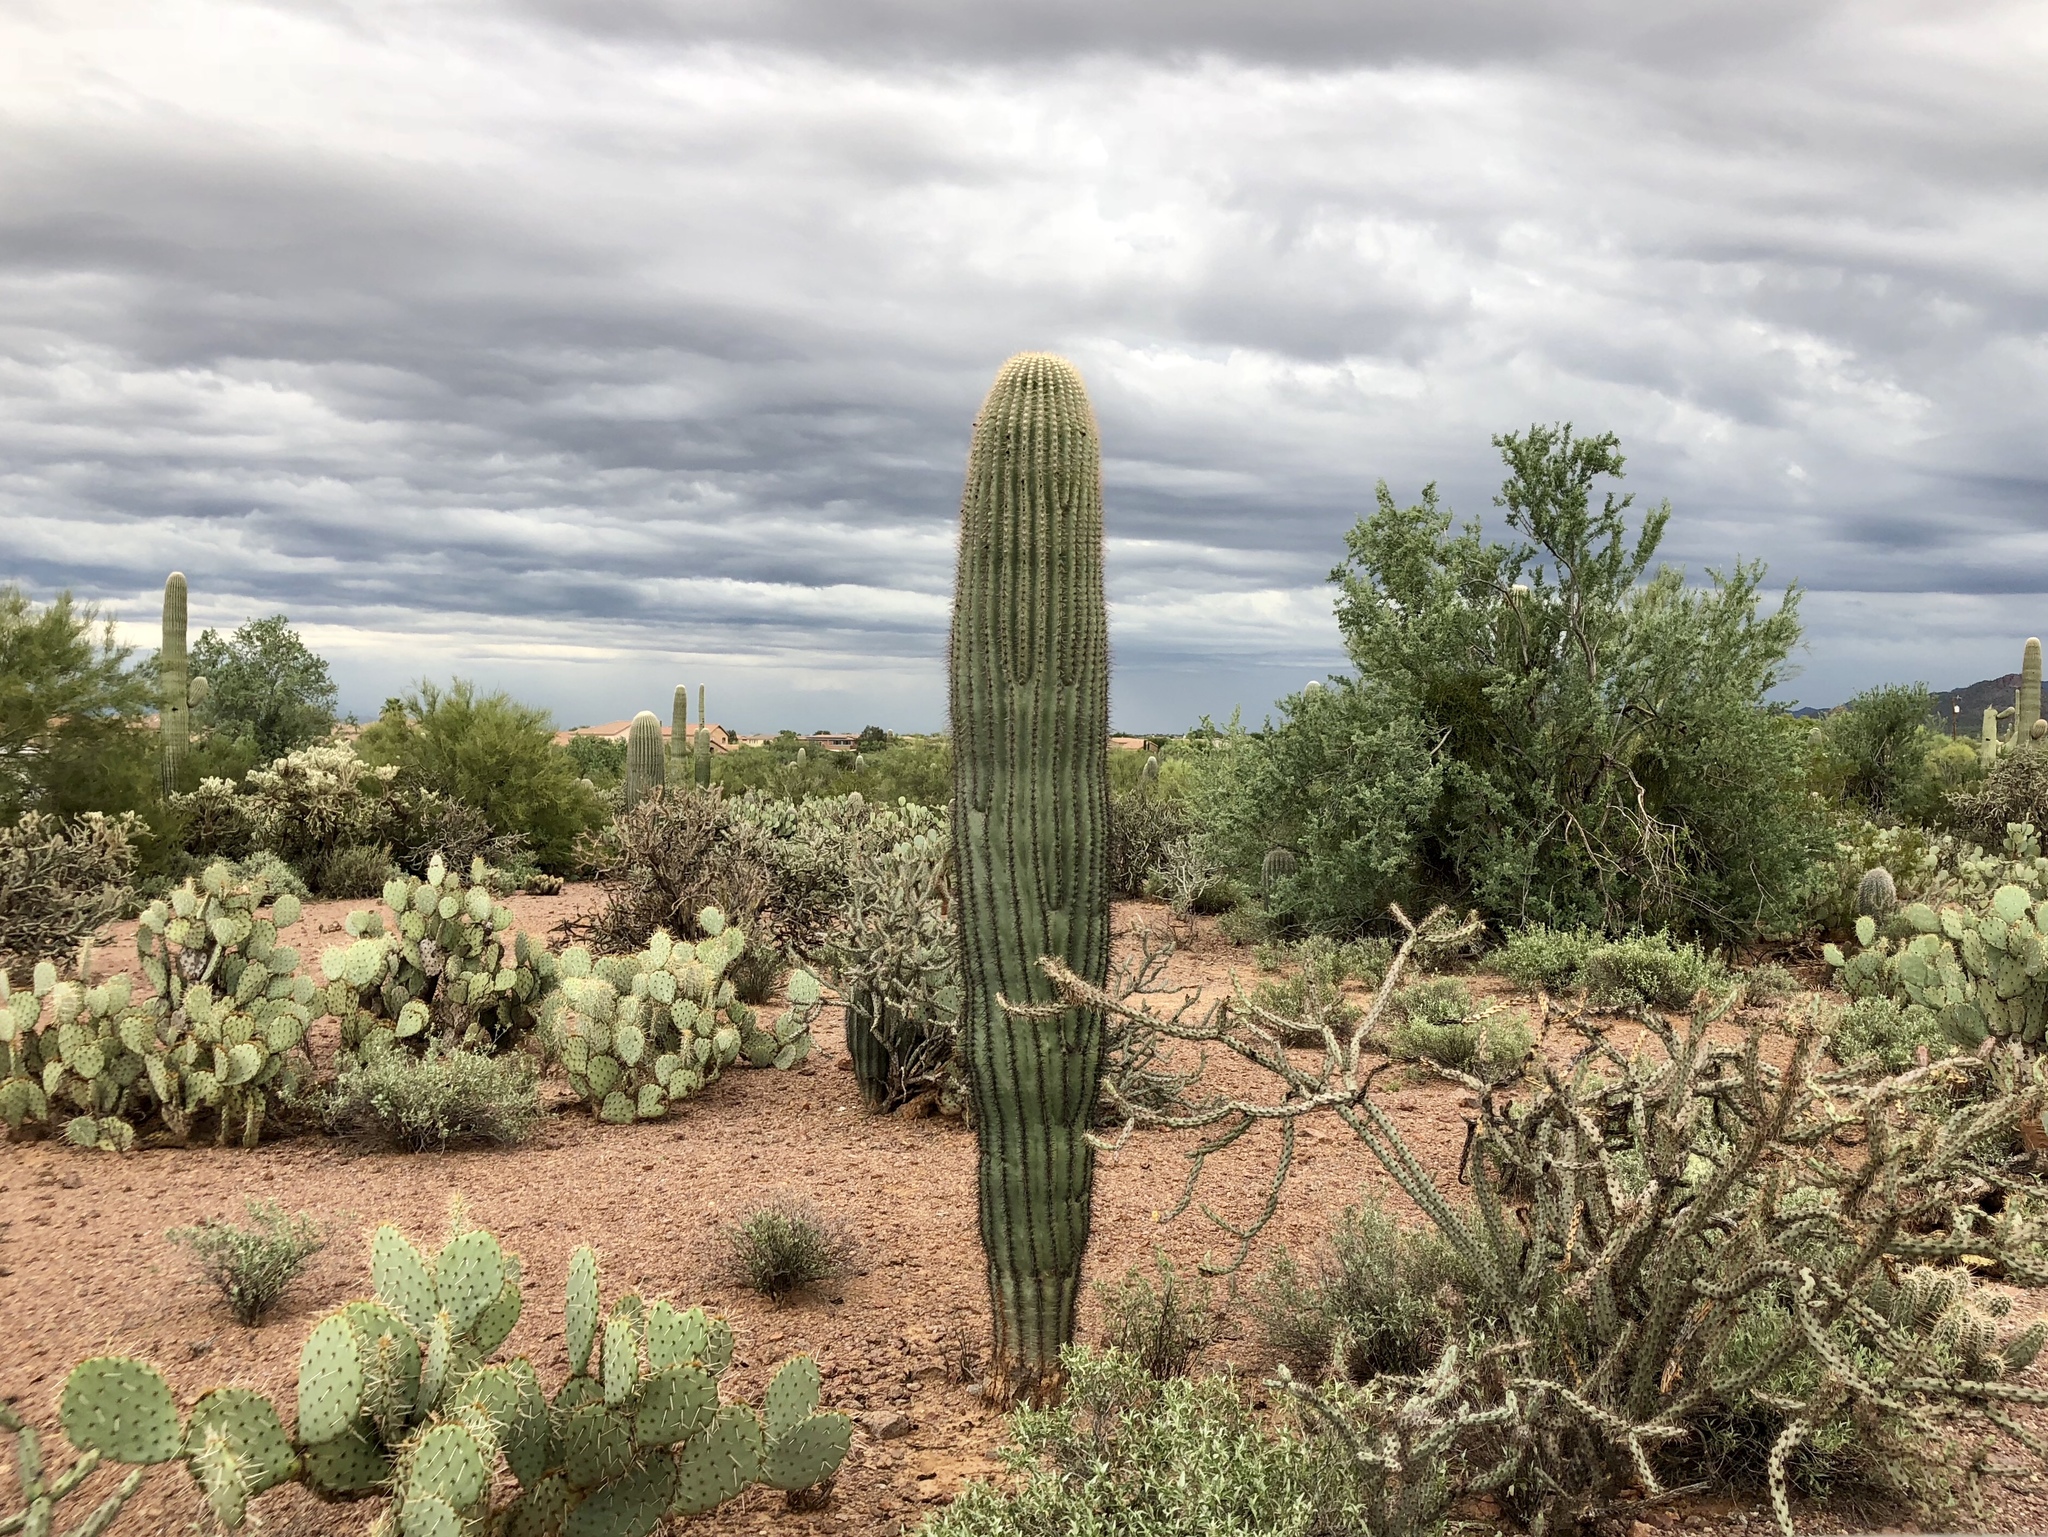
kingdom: Plantae
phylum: Tracheophyta
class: Magnoliopsida
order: Caryophyllales
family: Cactaceae
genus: Carnegiea
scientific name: Carnegiea gigantea
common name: Saguaro
